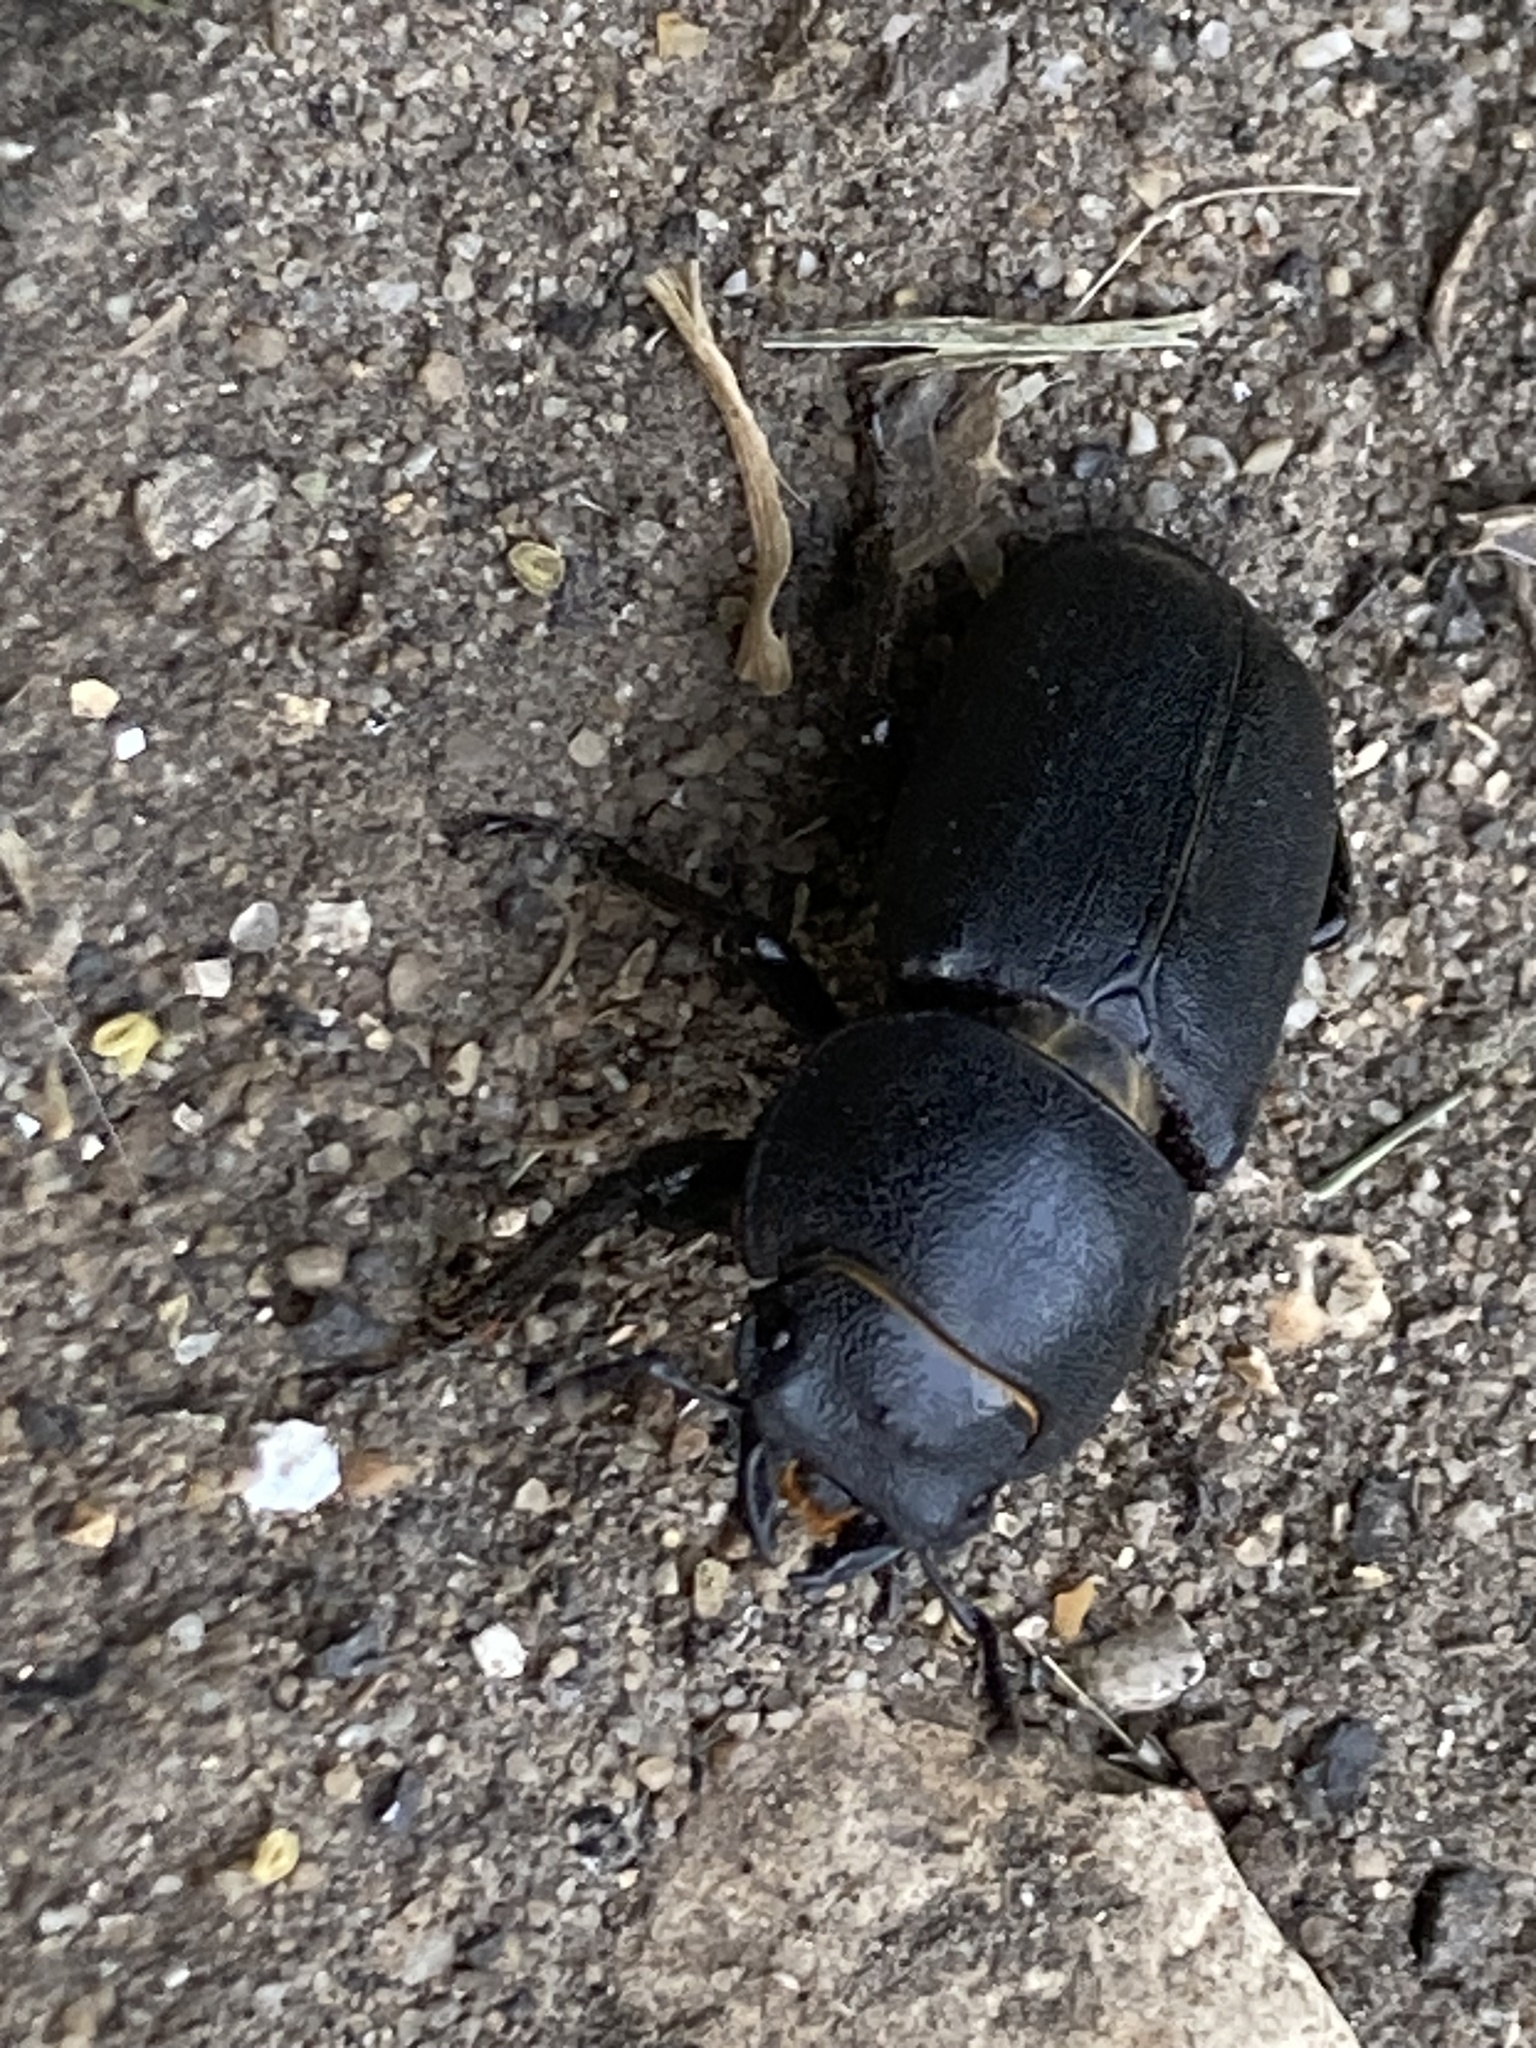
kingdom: Animalia
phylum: Arthropoda
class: Insecta
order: Coleoptera
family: Lucanidae
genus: Dorcus
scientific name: Dorcus parallelipipedus
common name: Lesser stag beetle
